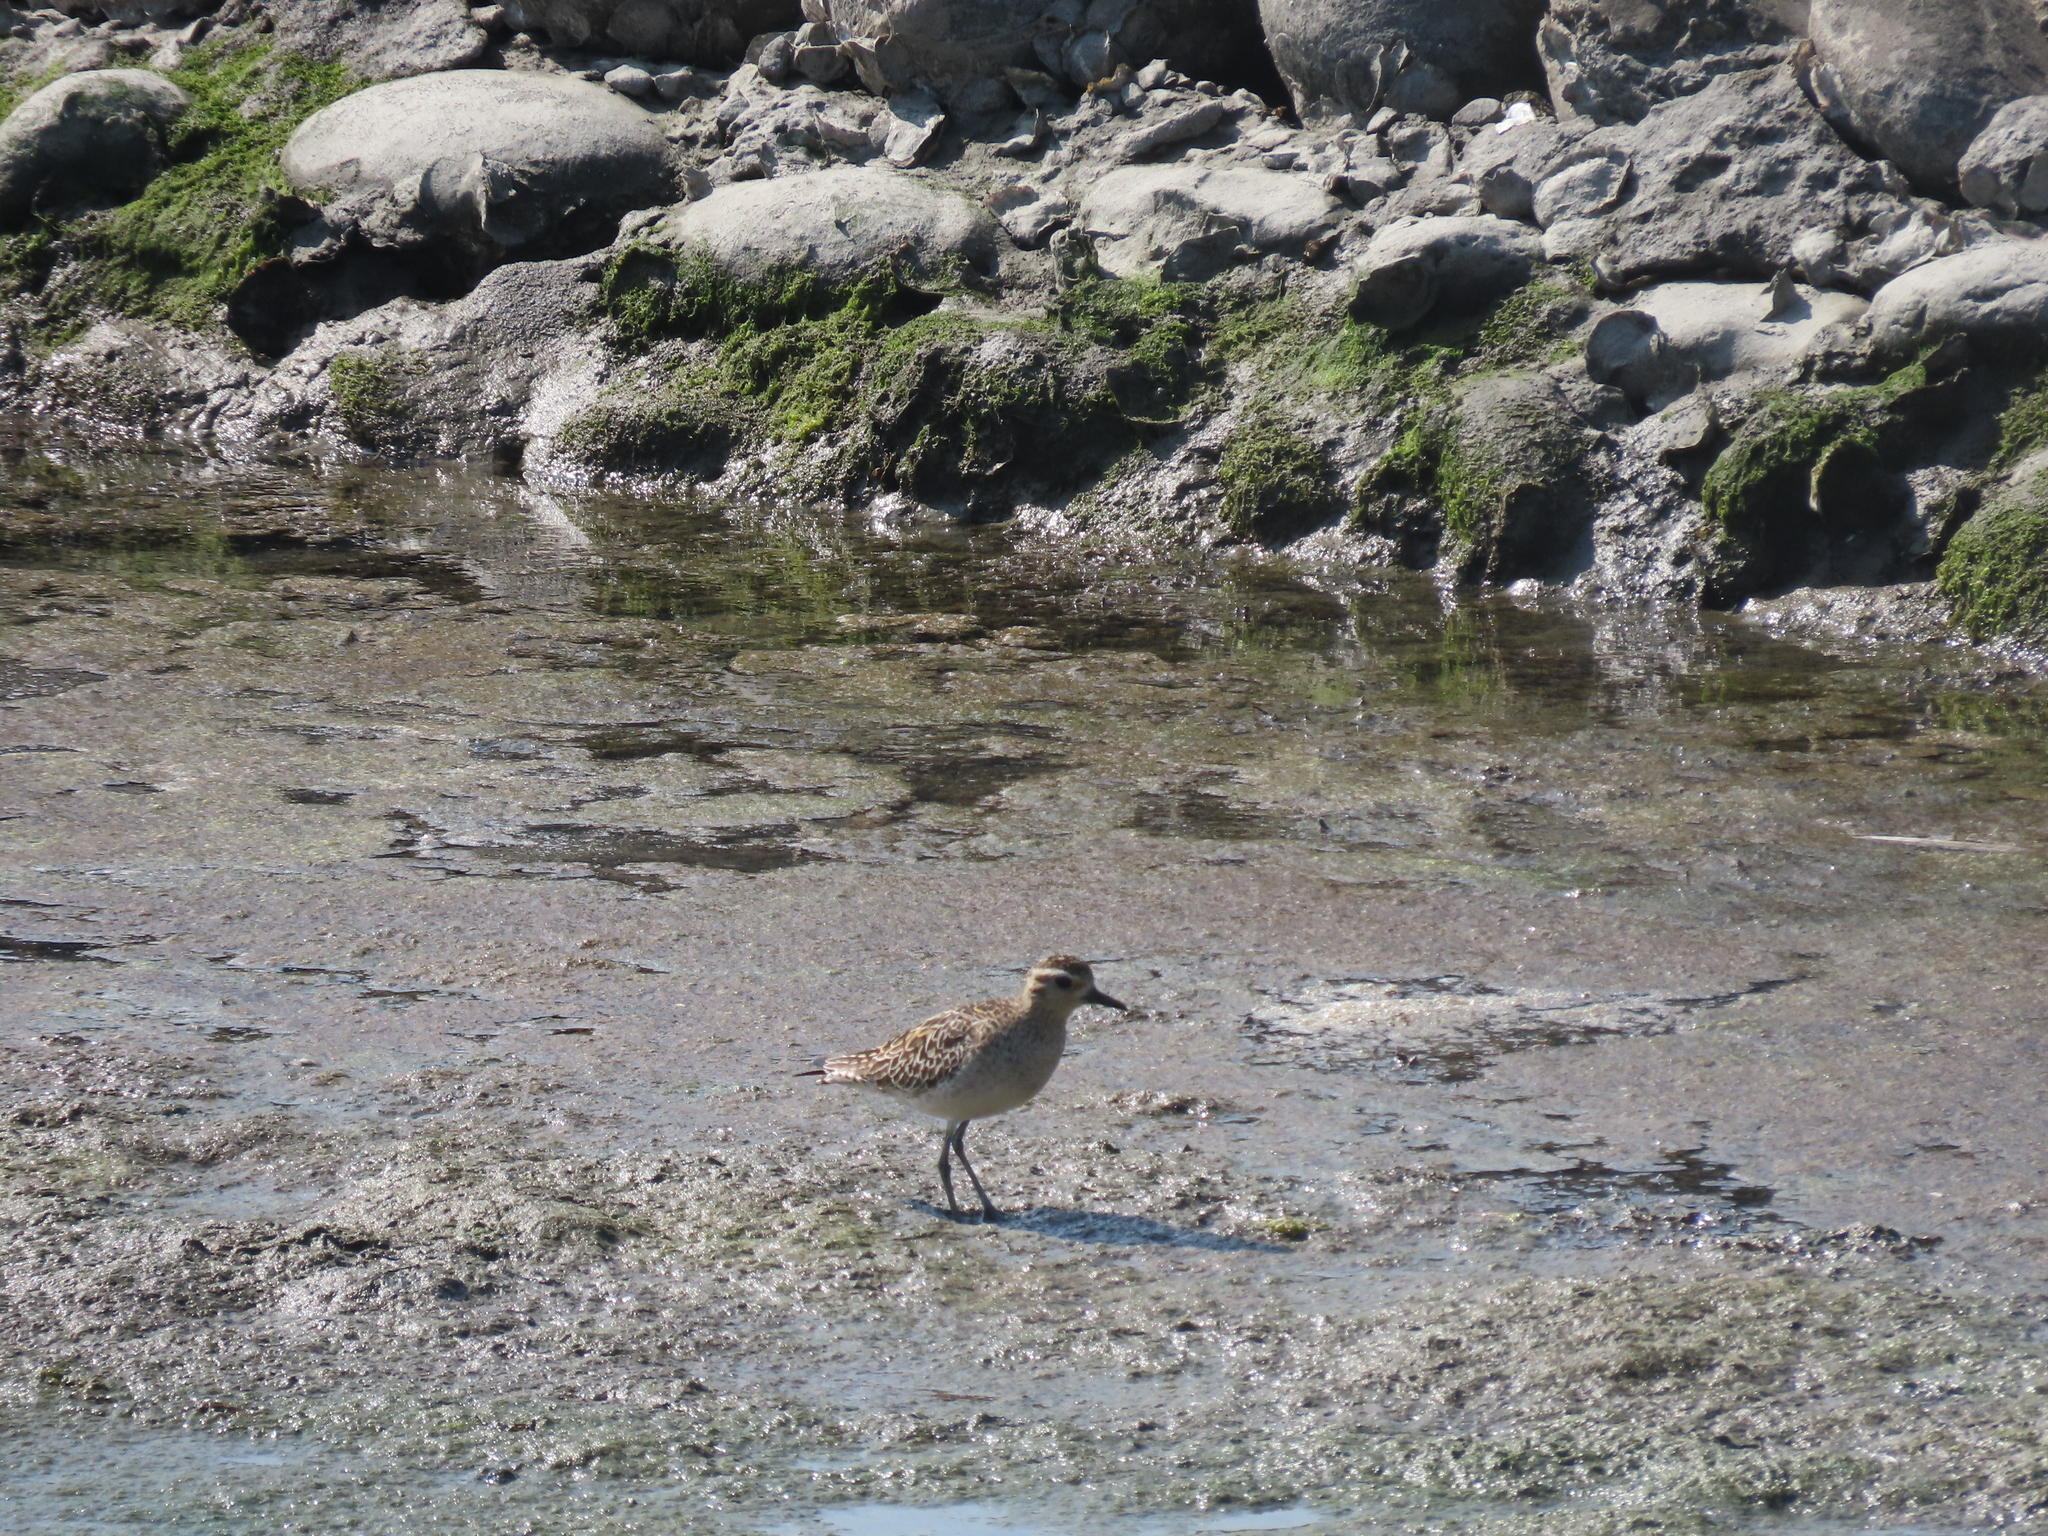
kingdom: Animalia
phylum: Chordata
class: Aves
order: Charadriiformes
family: Charadriidae
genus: Pluvialis
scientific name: Pluvialis fulva
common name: Pacific golden plover
